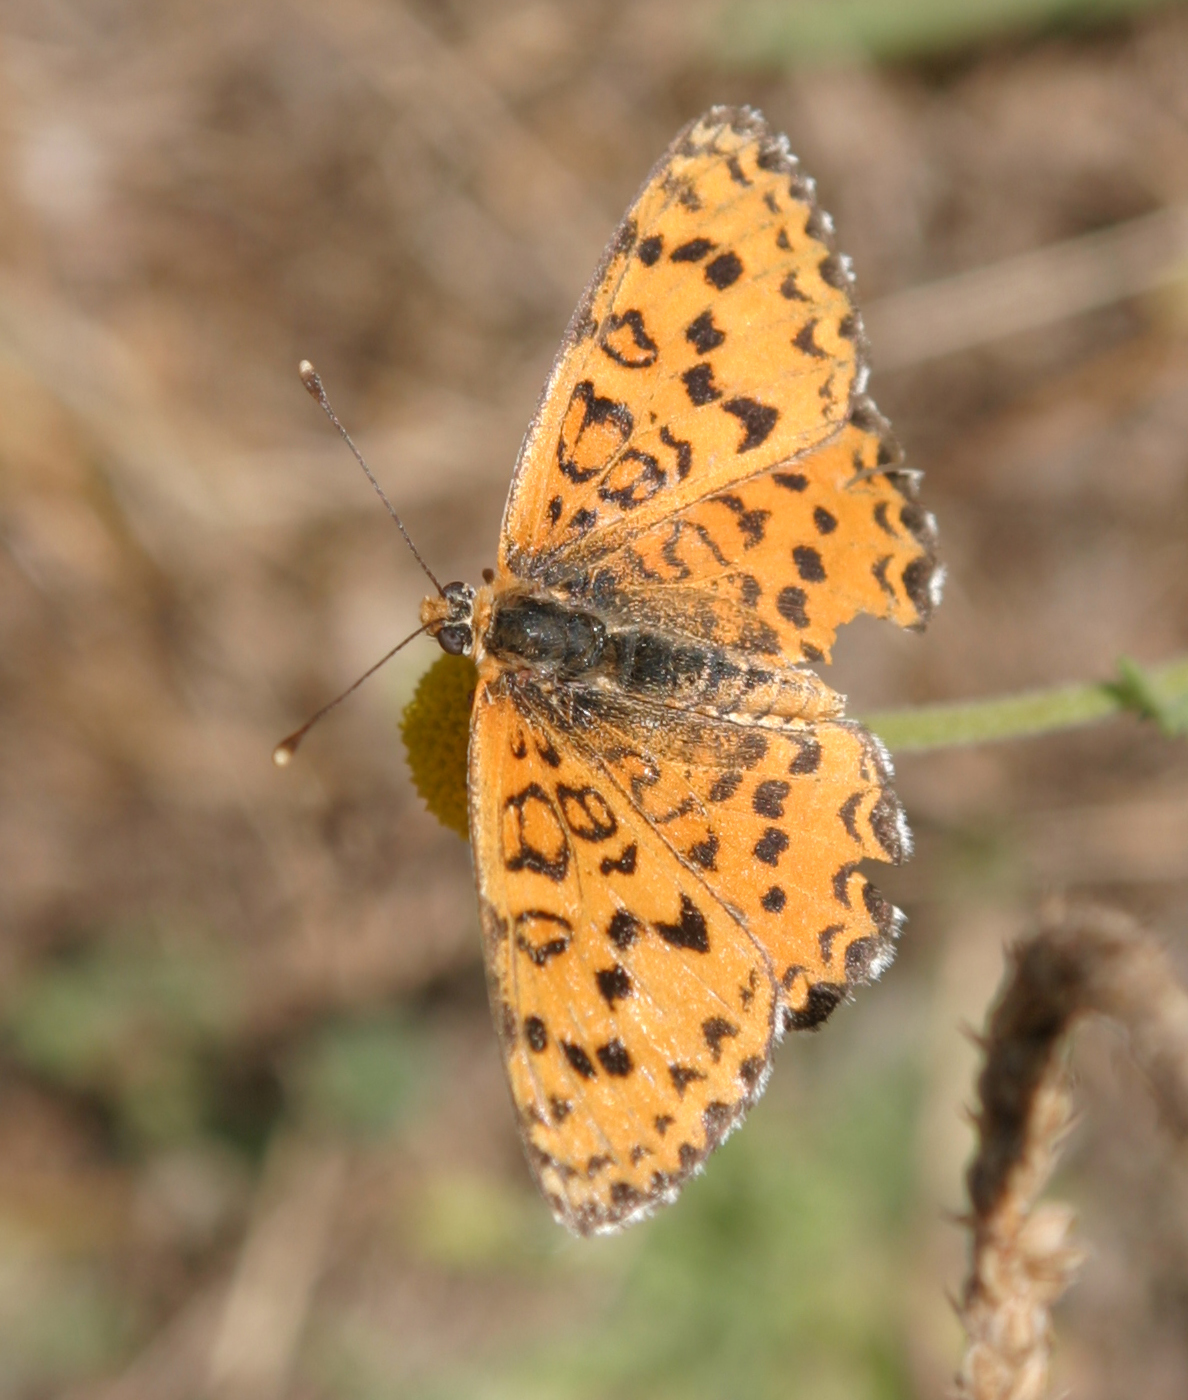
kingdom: Animalia
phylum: Arthropoda
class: Insecta
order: Lepidoptera
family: Nymphalidae
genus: Melitaea
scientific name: Melitaea trivia
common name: Lesser spotted fritillary
